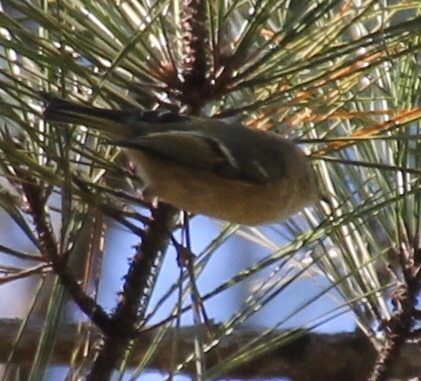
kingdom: Animalia
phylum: Chordata
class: Aves
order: Passeriformes
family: Regulidae
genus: Regulus
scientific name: Regulus calendula
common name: Ruby-crowned kinglet
